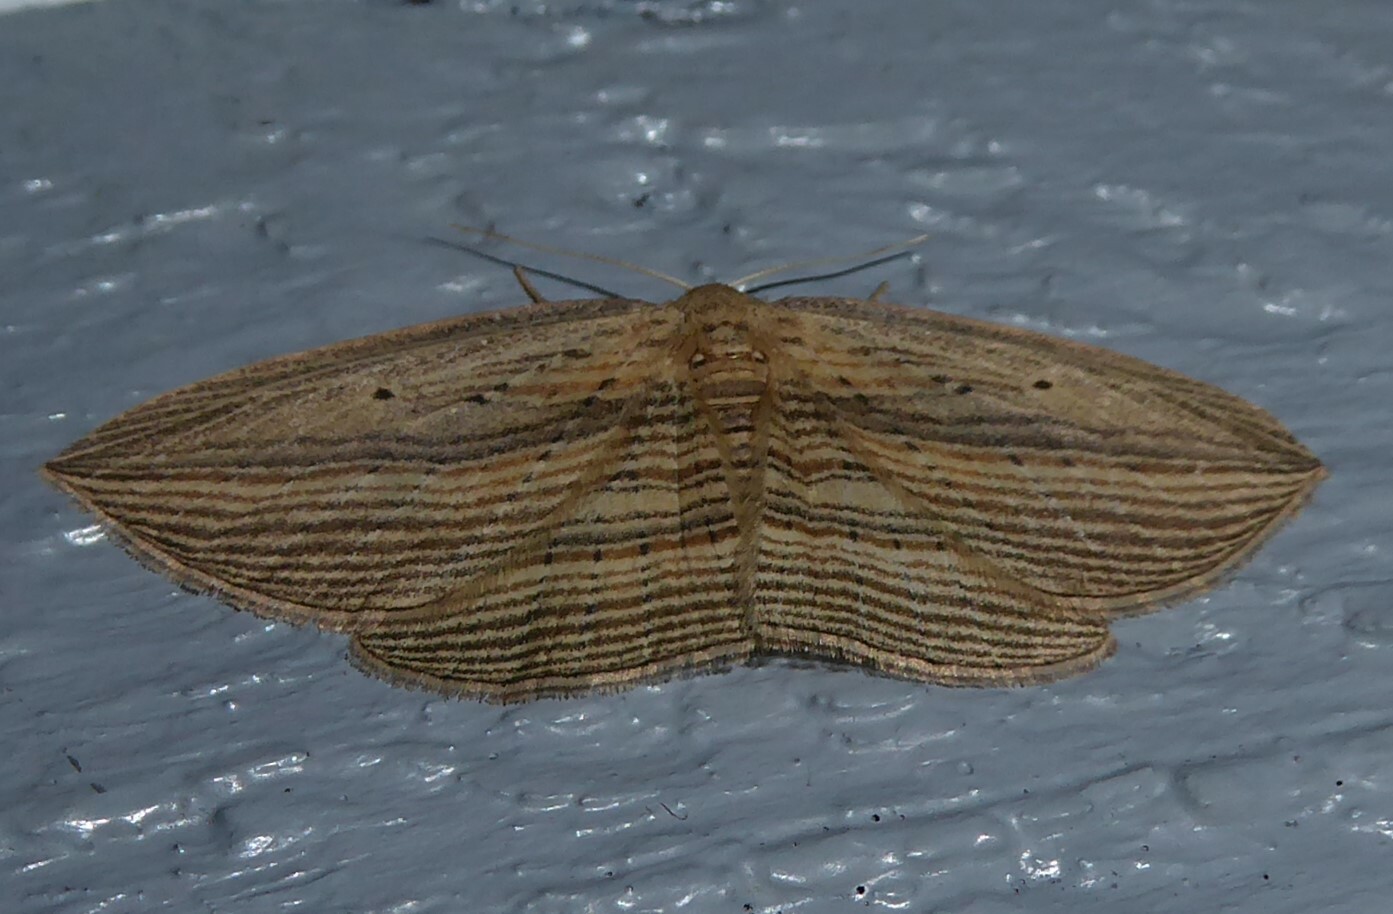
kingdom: Animalia
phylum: Arthropoda
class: Insecta
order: Lepidoptera
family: Geometridae
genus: Epiphryne
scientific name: Epiphryne verriculata
